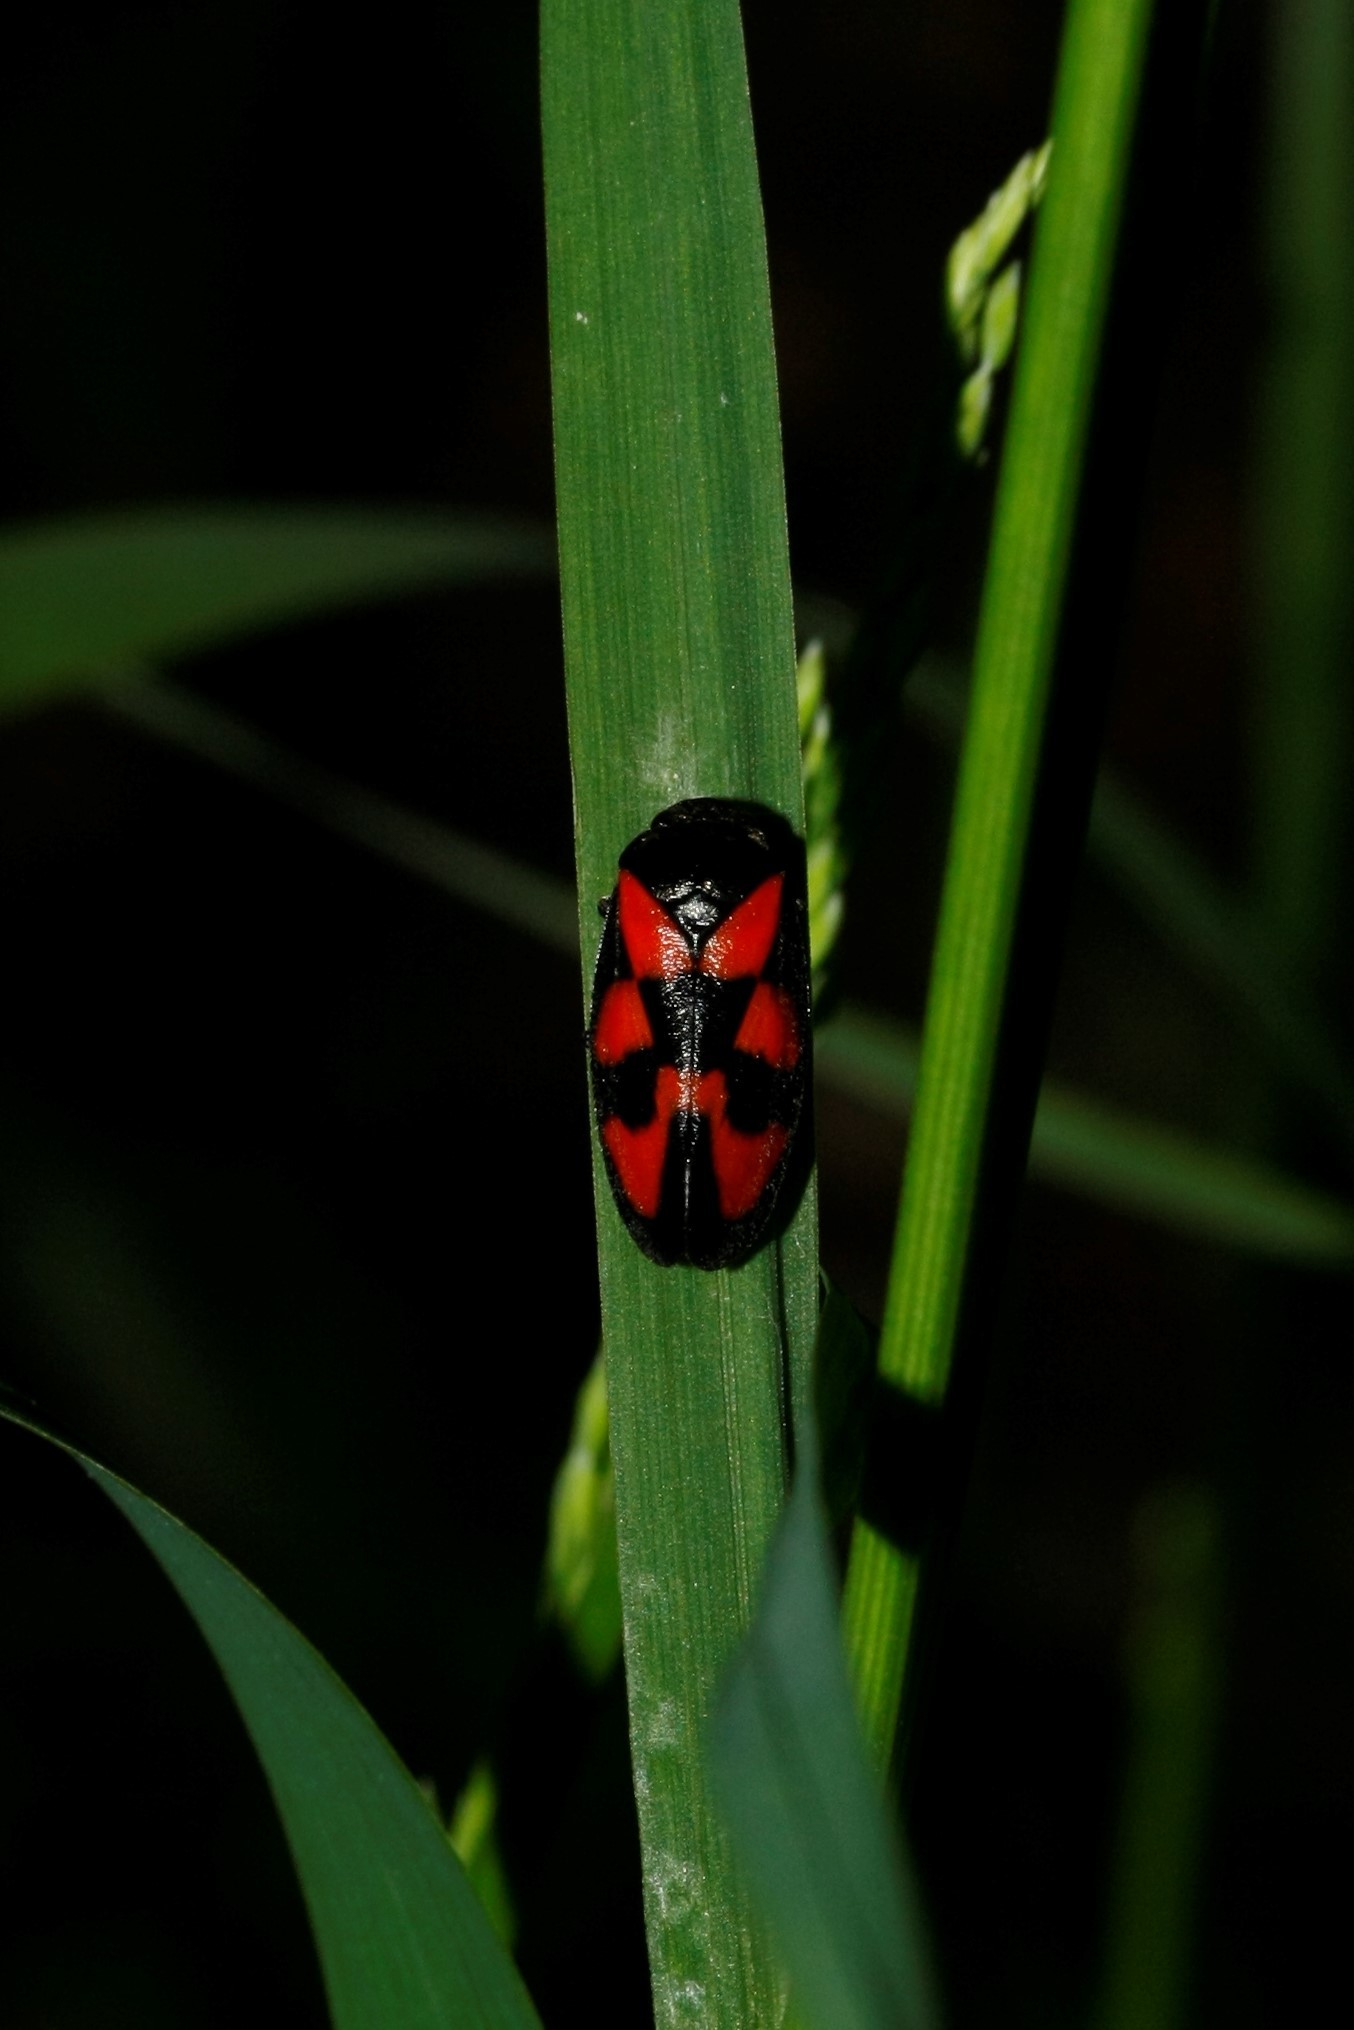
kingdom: Animalia
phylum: Arthropoda
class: Insecta
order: Hemiptera
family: Cercopidae
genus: Cercopis
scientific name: Cercopis vulnerata
